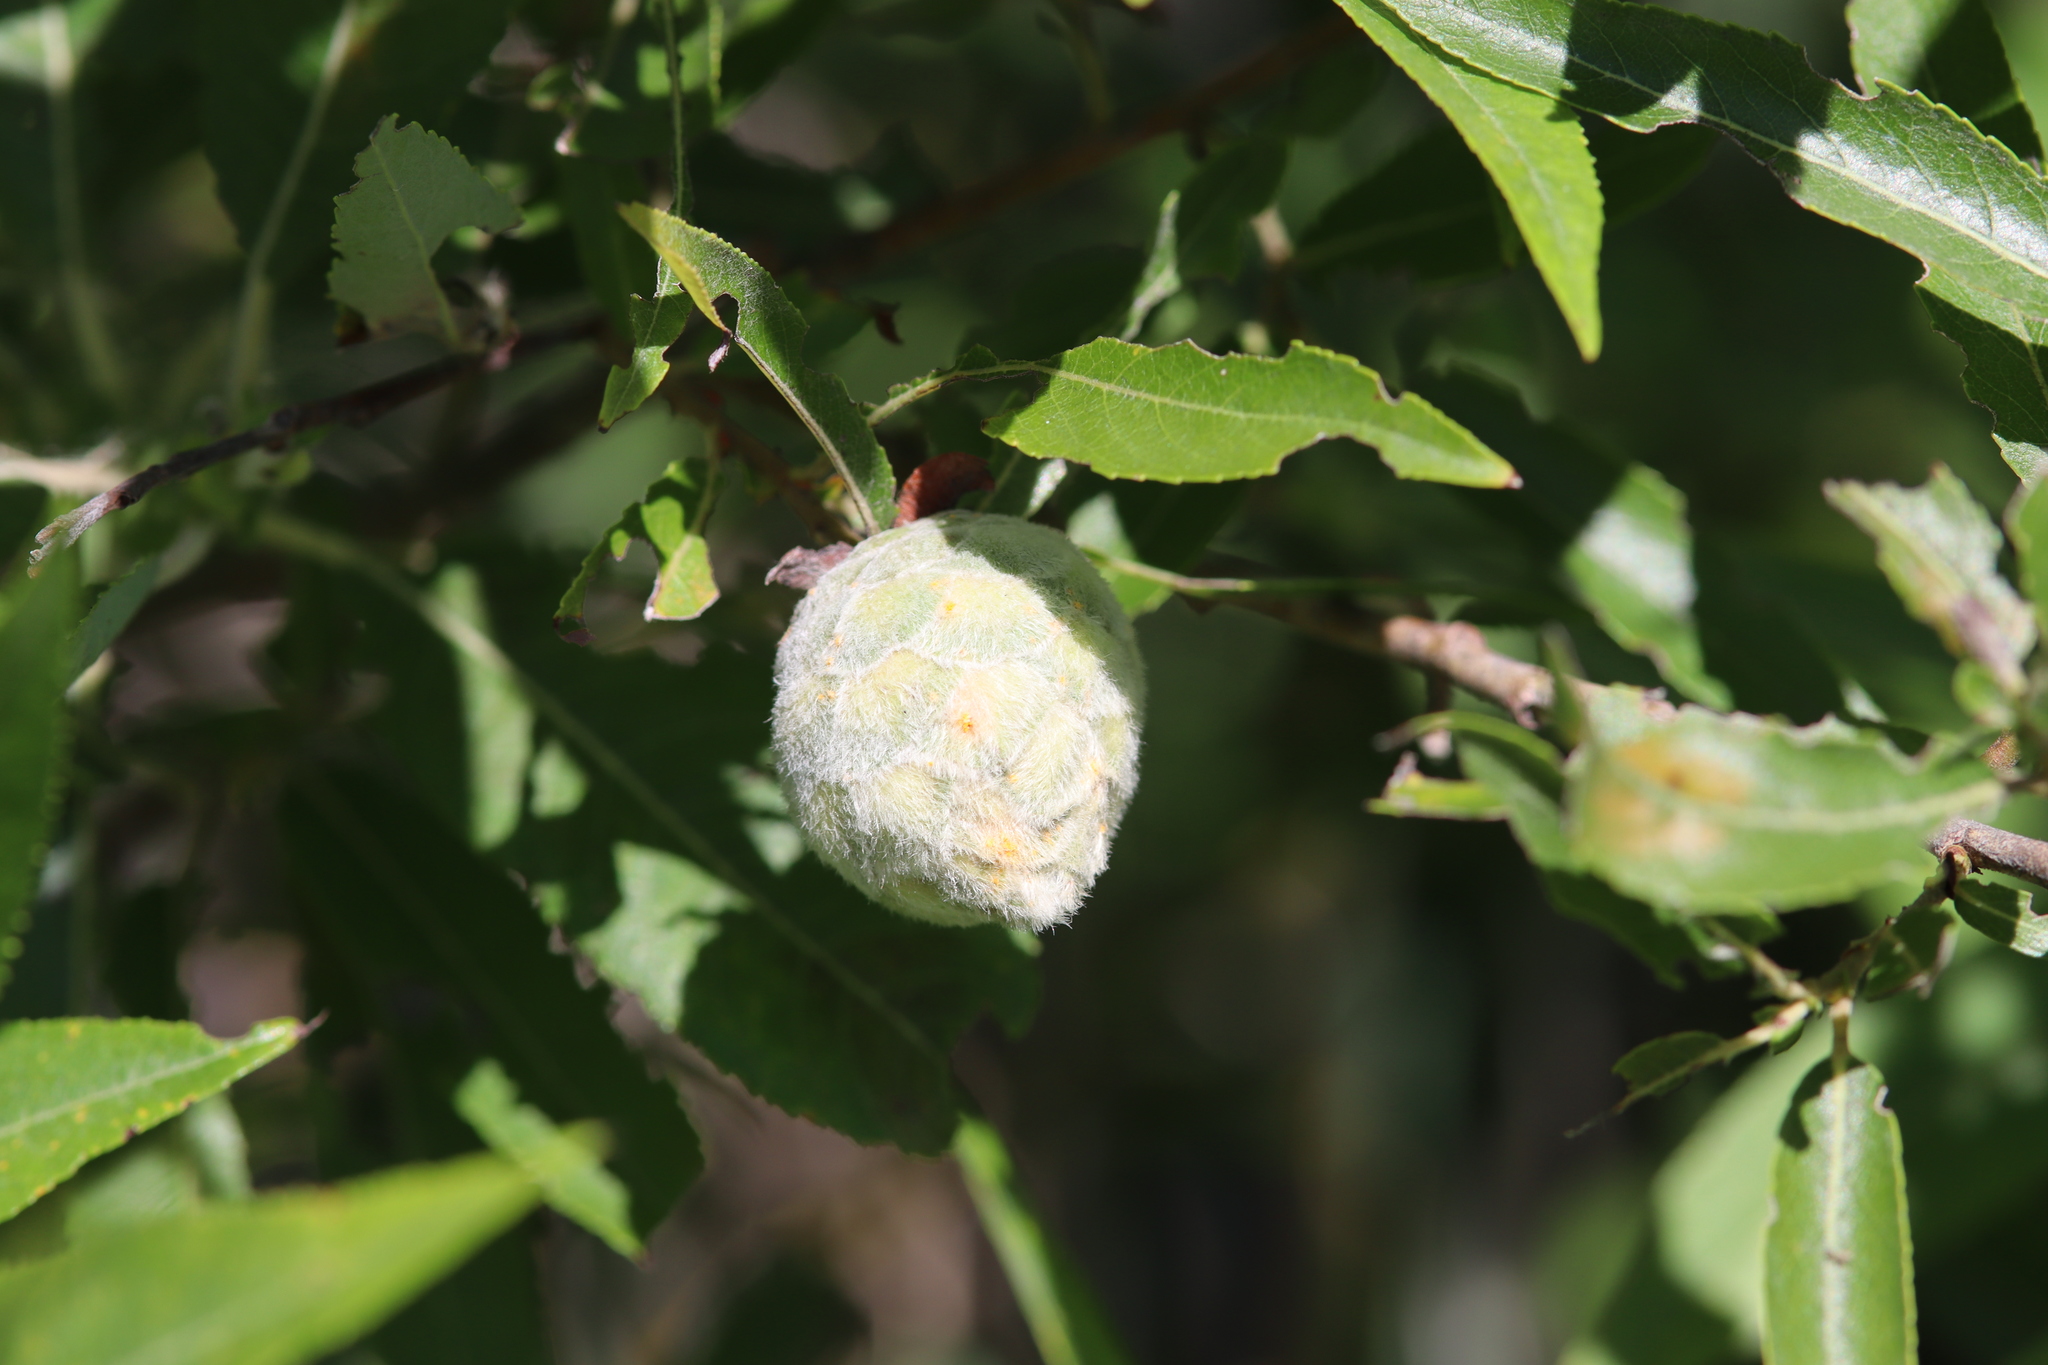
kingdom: Animalia
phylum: Arthropoda
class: Insecta
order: Diptera
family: Cecidomyiidae
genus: Rabdophaga
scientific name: Rabdophaga strobiloides
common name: Willow pinecone gall midge
